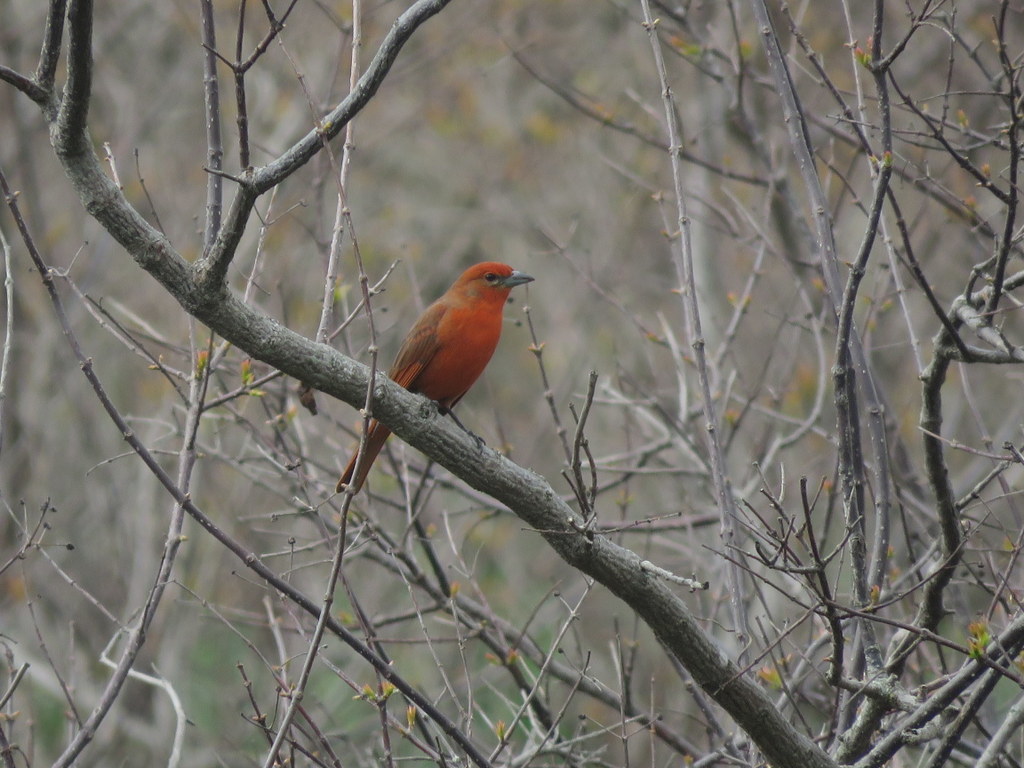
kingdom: Animalia
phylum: Chordata
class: Aves
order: Passeriformes
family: Cardinalidae
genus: Piranga
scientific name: Piranga flava
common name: Red tanager
